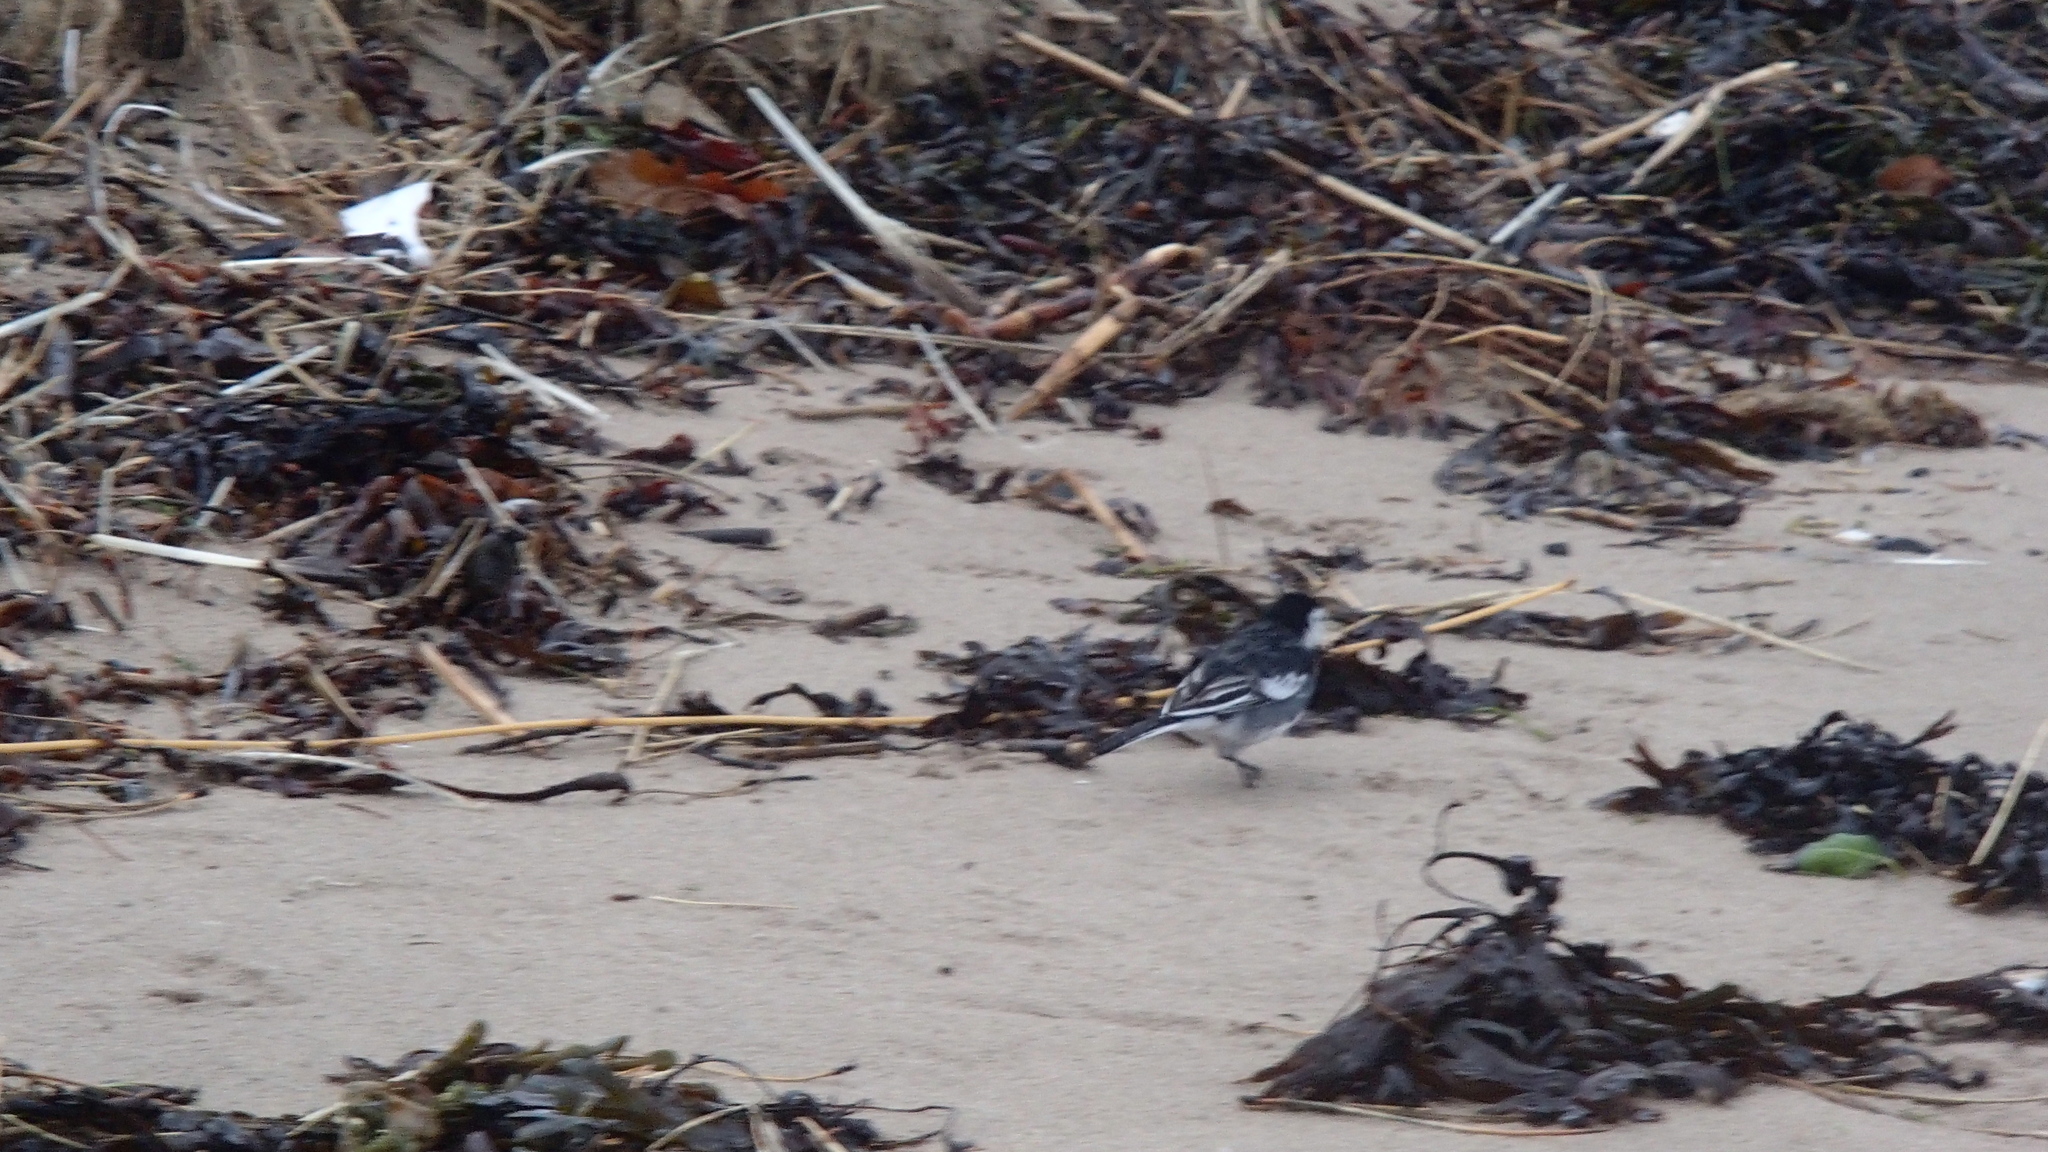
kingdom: Animalia
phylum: Chordata
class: Aves
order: Passeriformes
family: Motacillidae
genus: Motacilla
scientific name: Motacilla alba
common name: White wagtail
